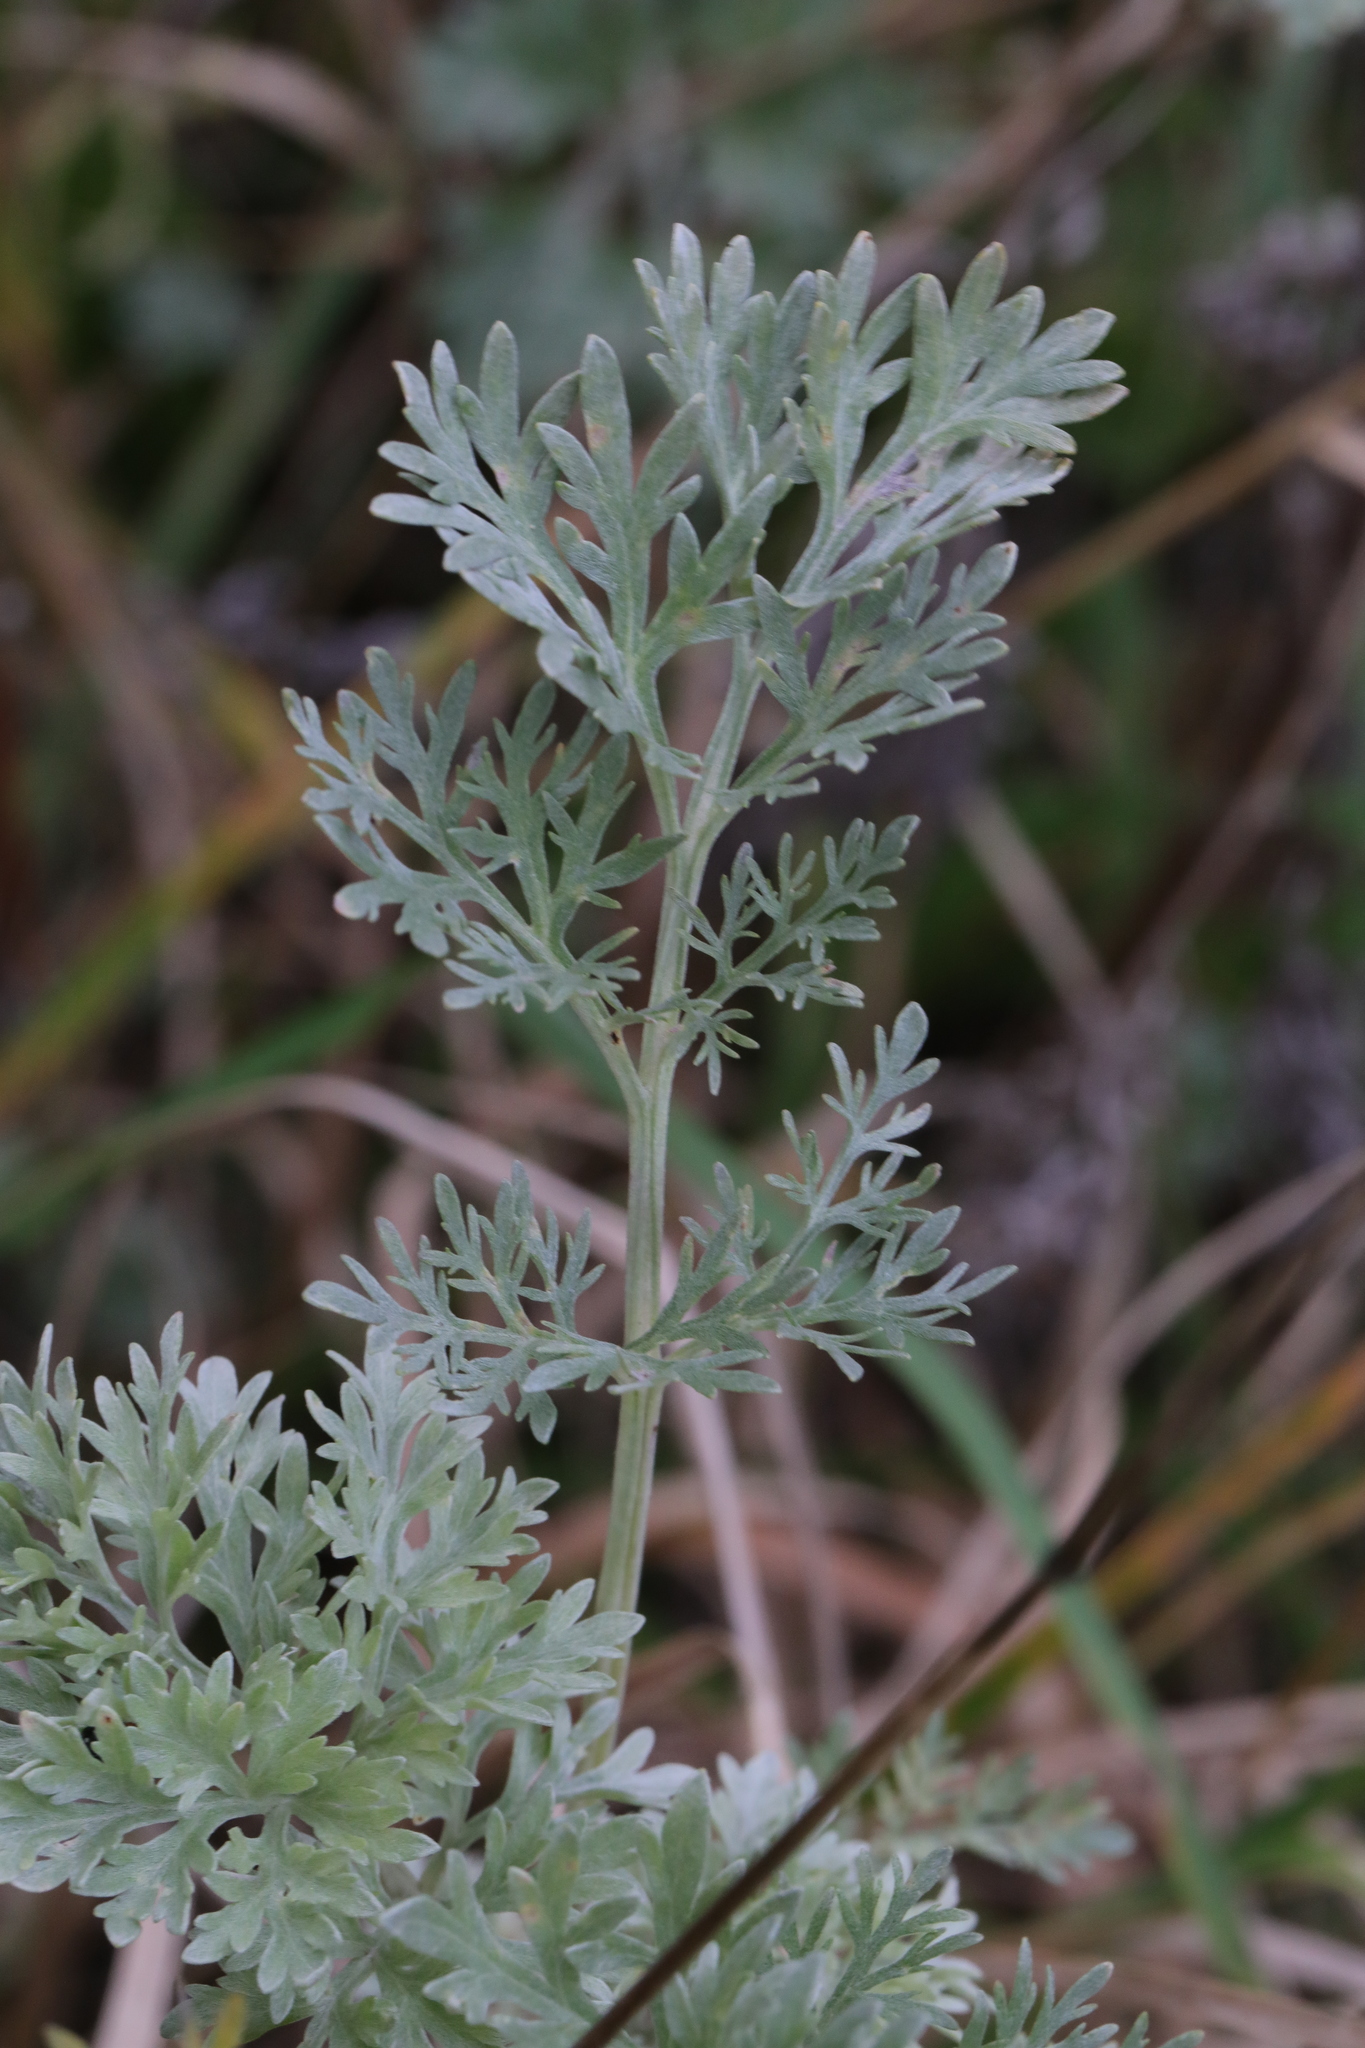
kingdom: Plantae
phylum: Tracheophyta
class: Magnoliopsida
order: Asterales
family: Asteraceae
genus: Artemisia
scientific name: Artemisia absinthium
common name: Wormwood
